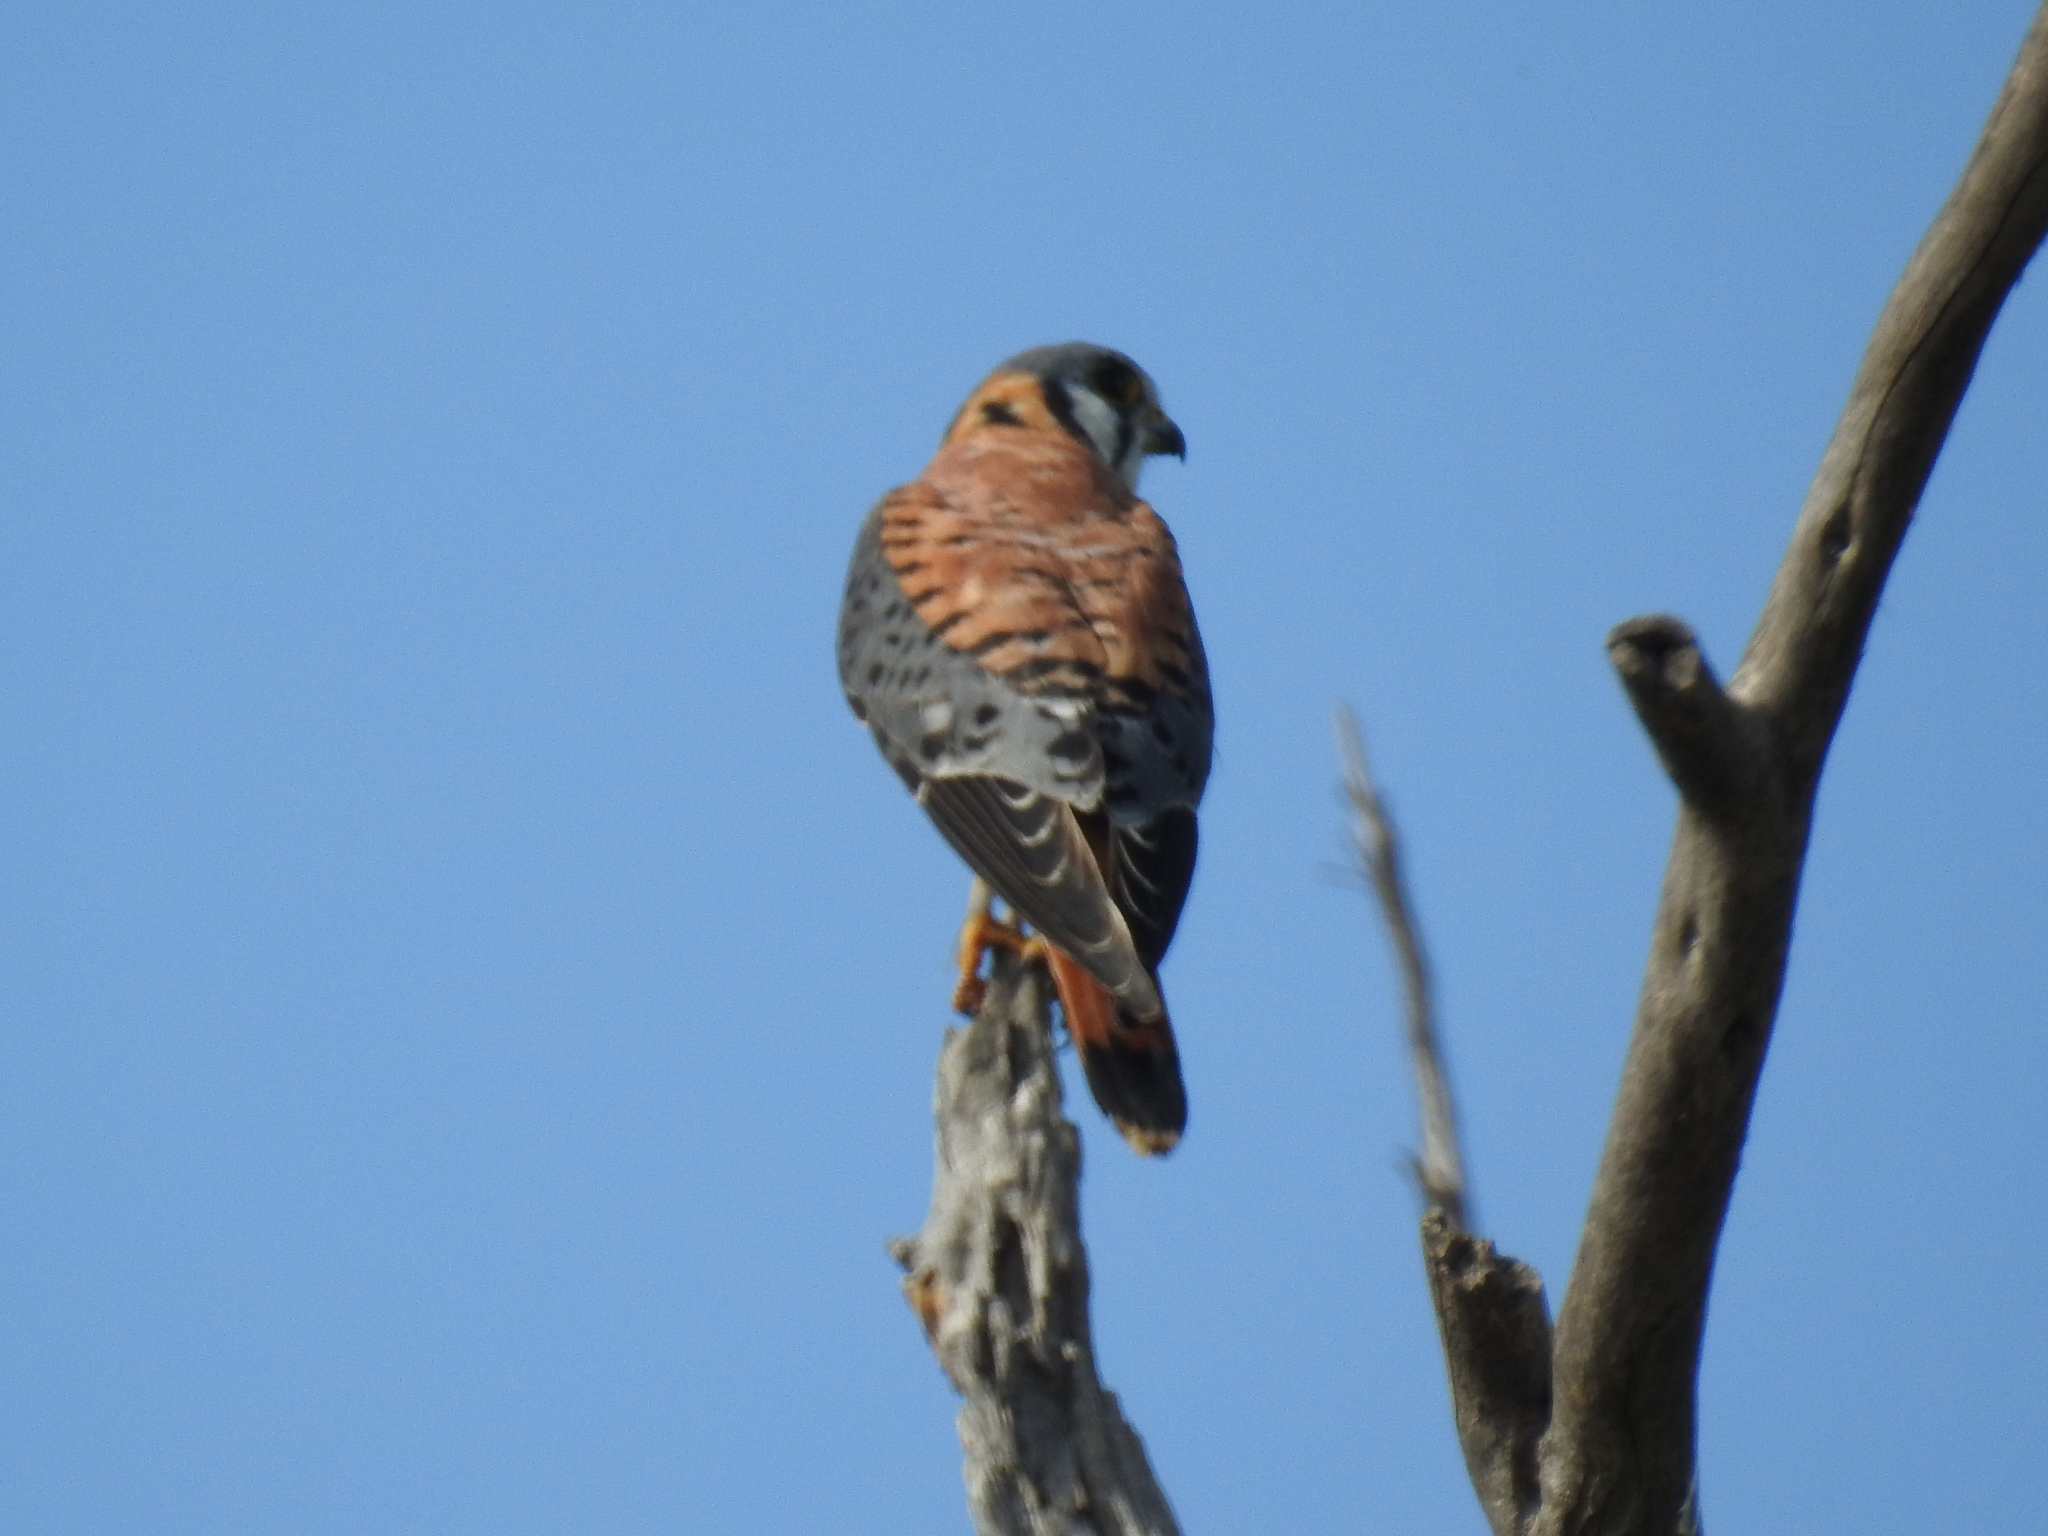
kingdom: Animalia
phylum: Chordata
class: Aves
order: Falconiformes
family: Falconidae
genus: Falco
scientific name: Falco sparverius
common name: American kestrel
